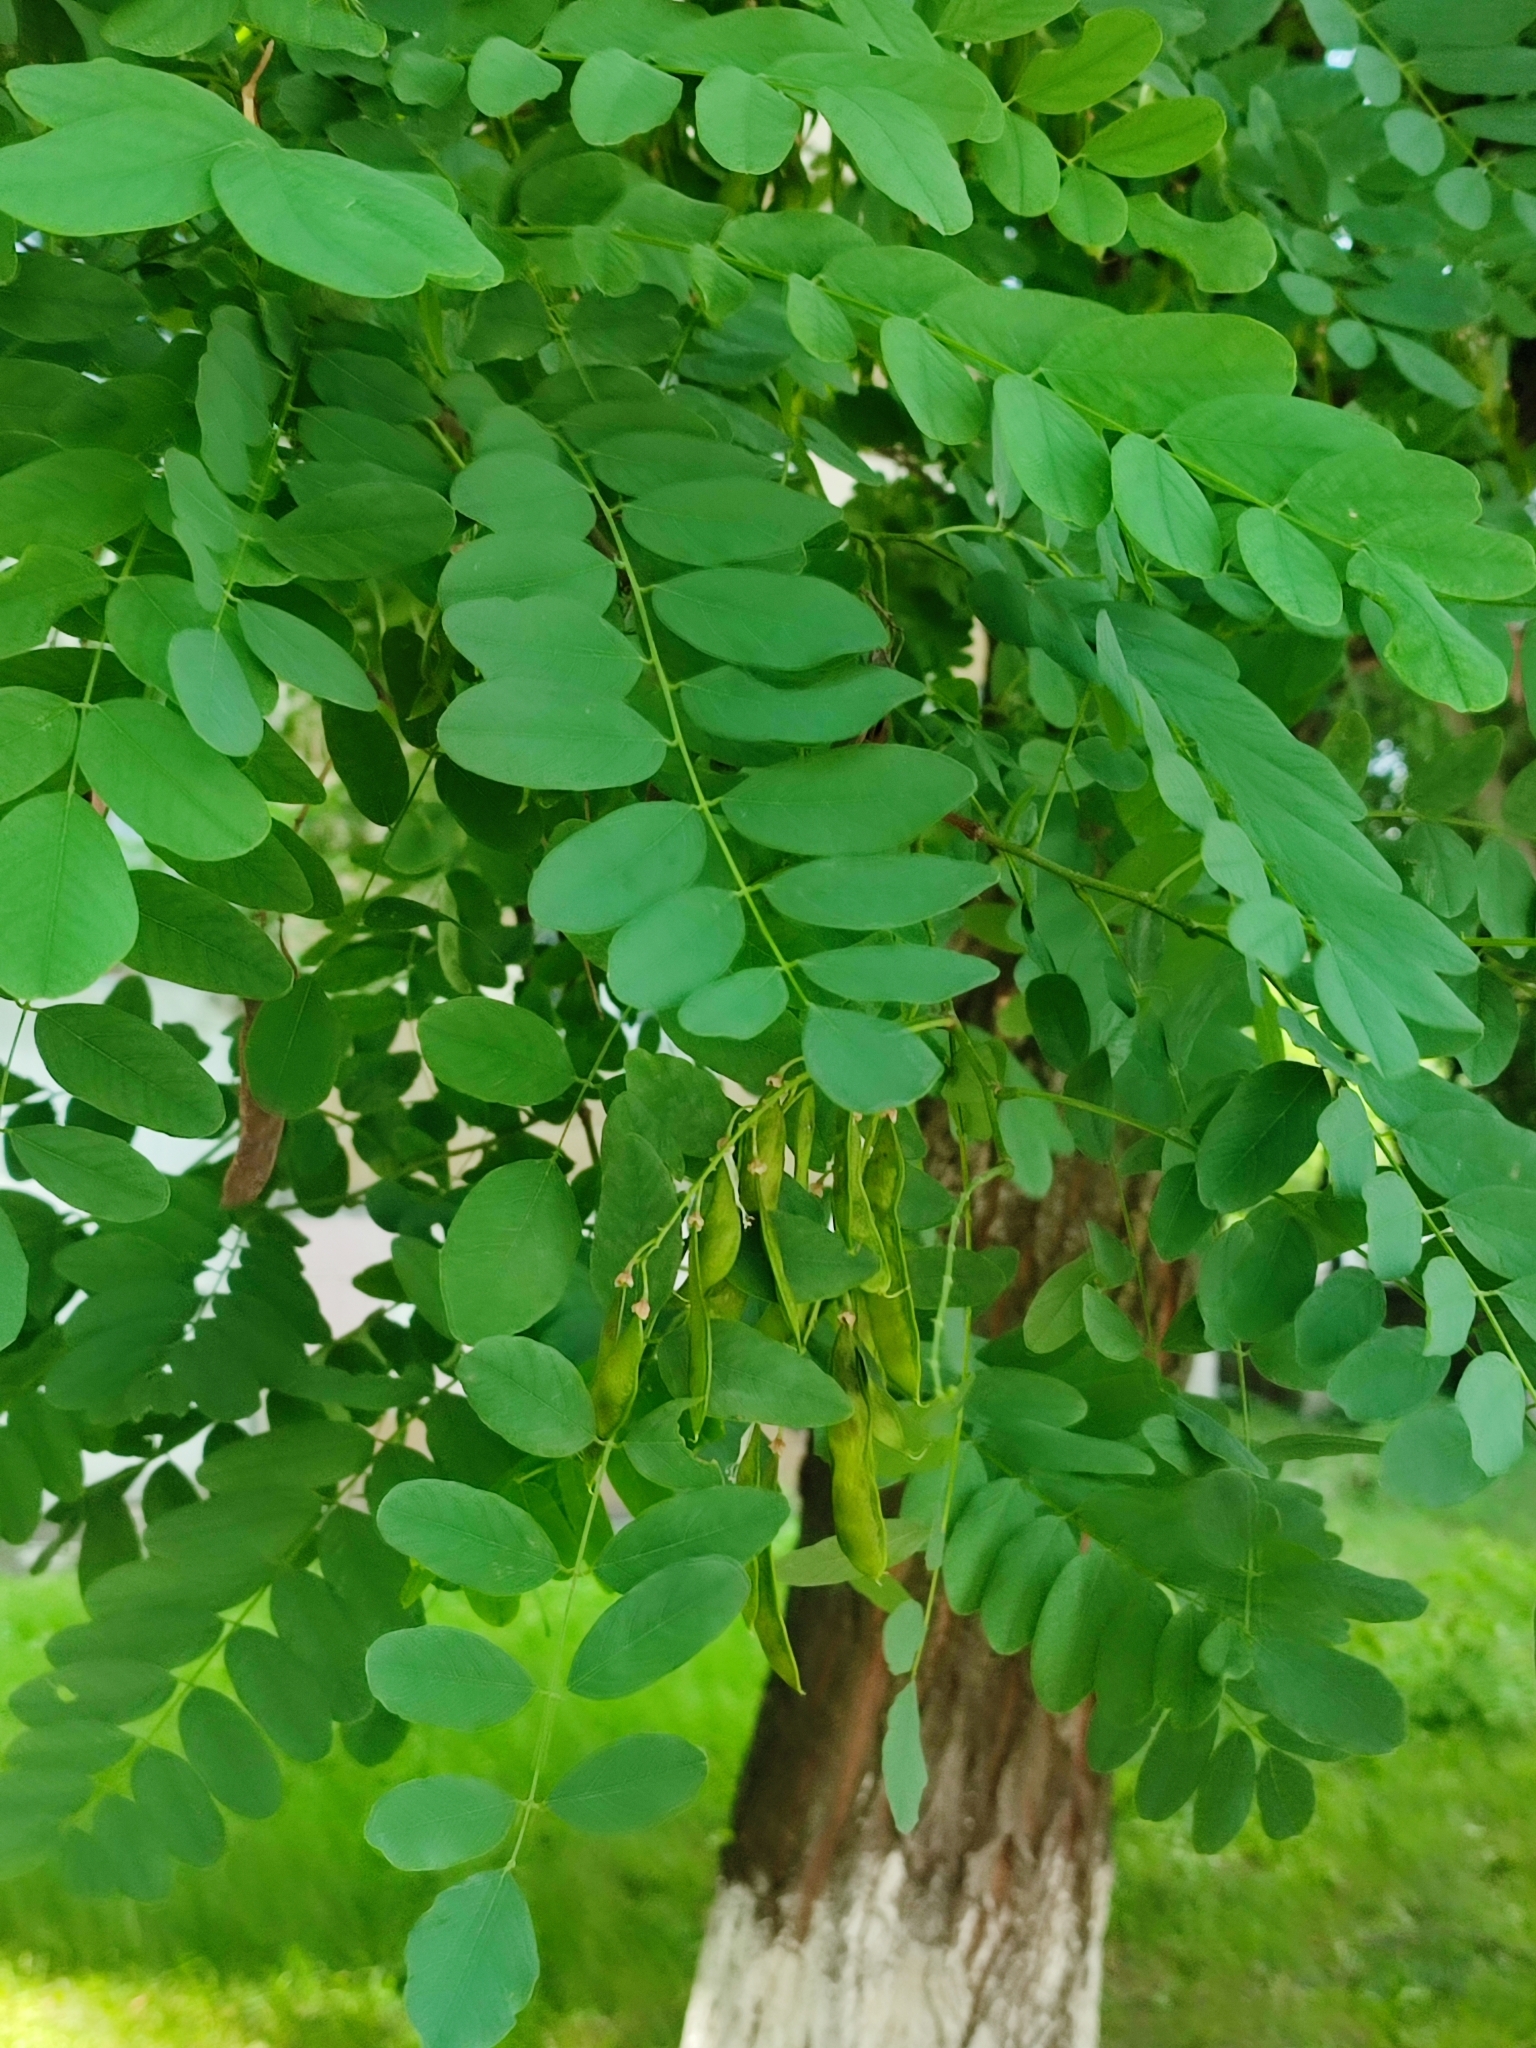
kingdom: Animalia
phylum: Arthropoda
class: Insecta
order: Lepidoptera
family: Gracillariidae
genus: Parectopa
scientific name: Parectopa robiniella
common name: Locust digitate leafminer
